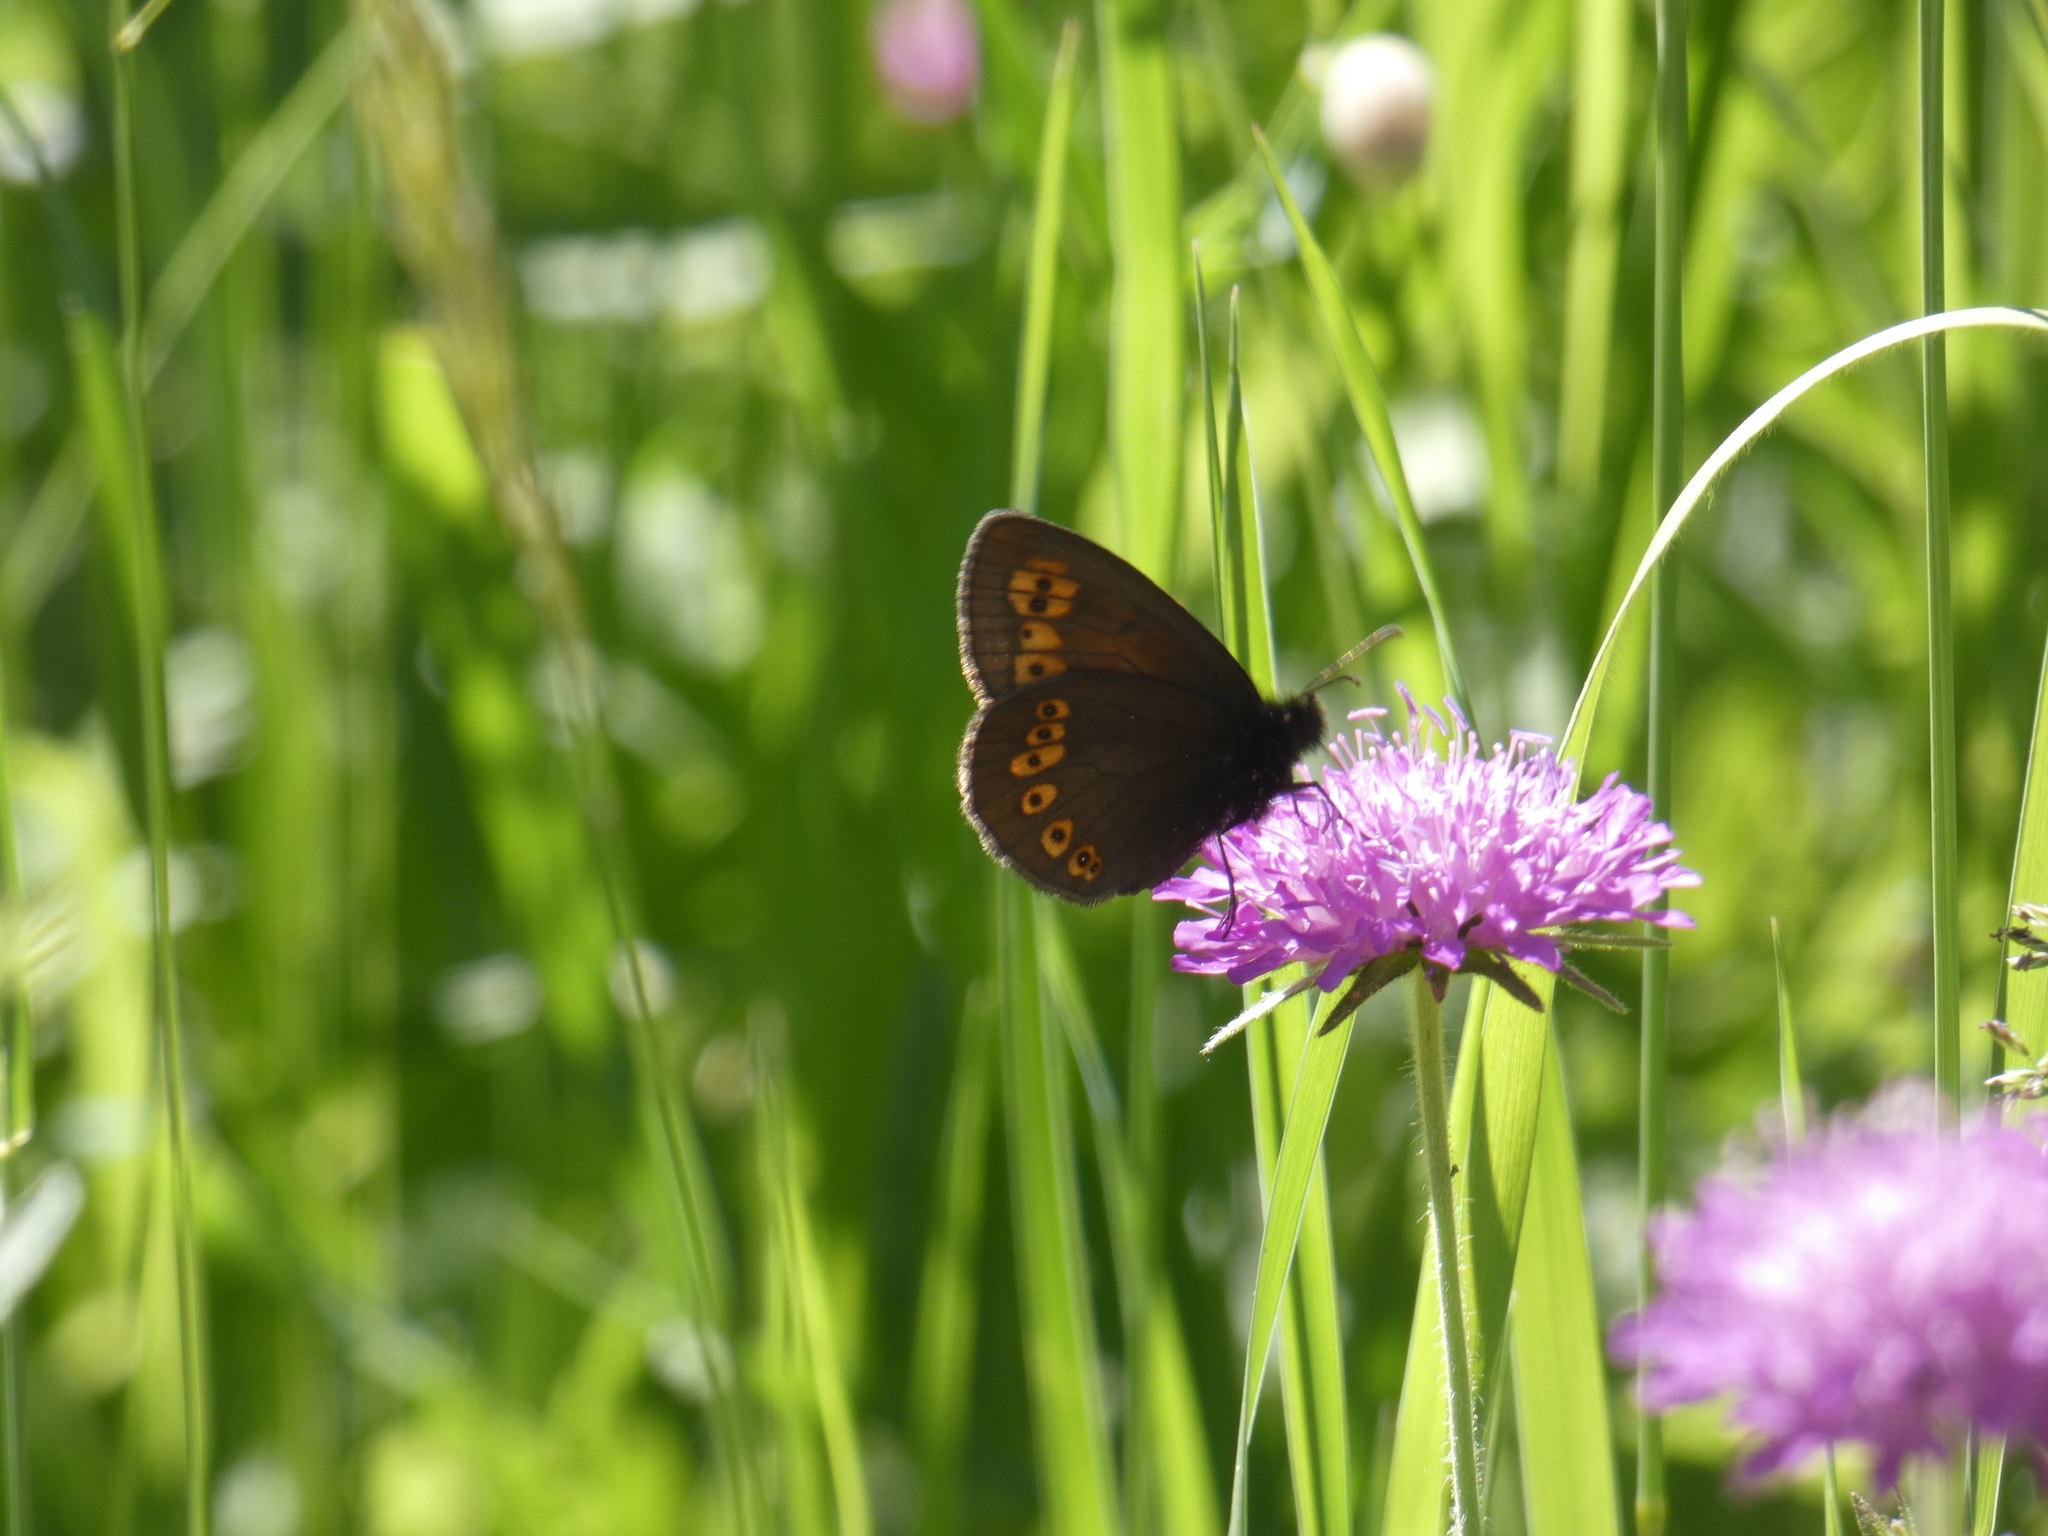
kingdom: Animalia
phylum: Arthropoda
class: Insecta
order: Lepidoptera
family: Nymphalidae
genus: Erebia
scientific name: Erebia alberganus
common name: Almond-eyed ringlet
